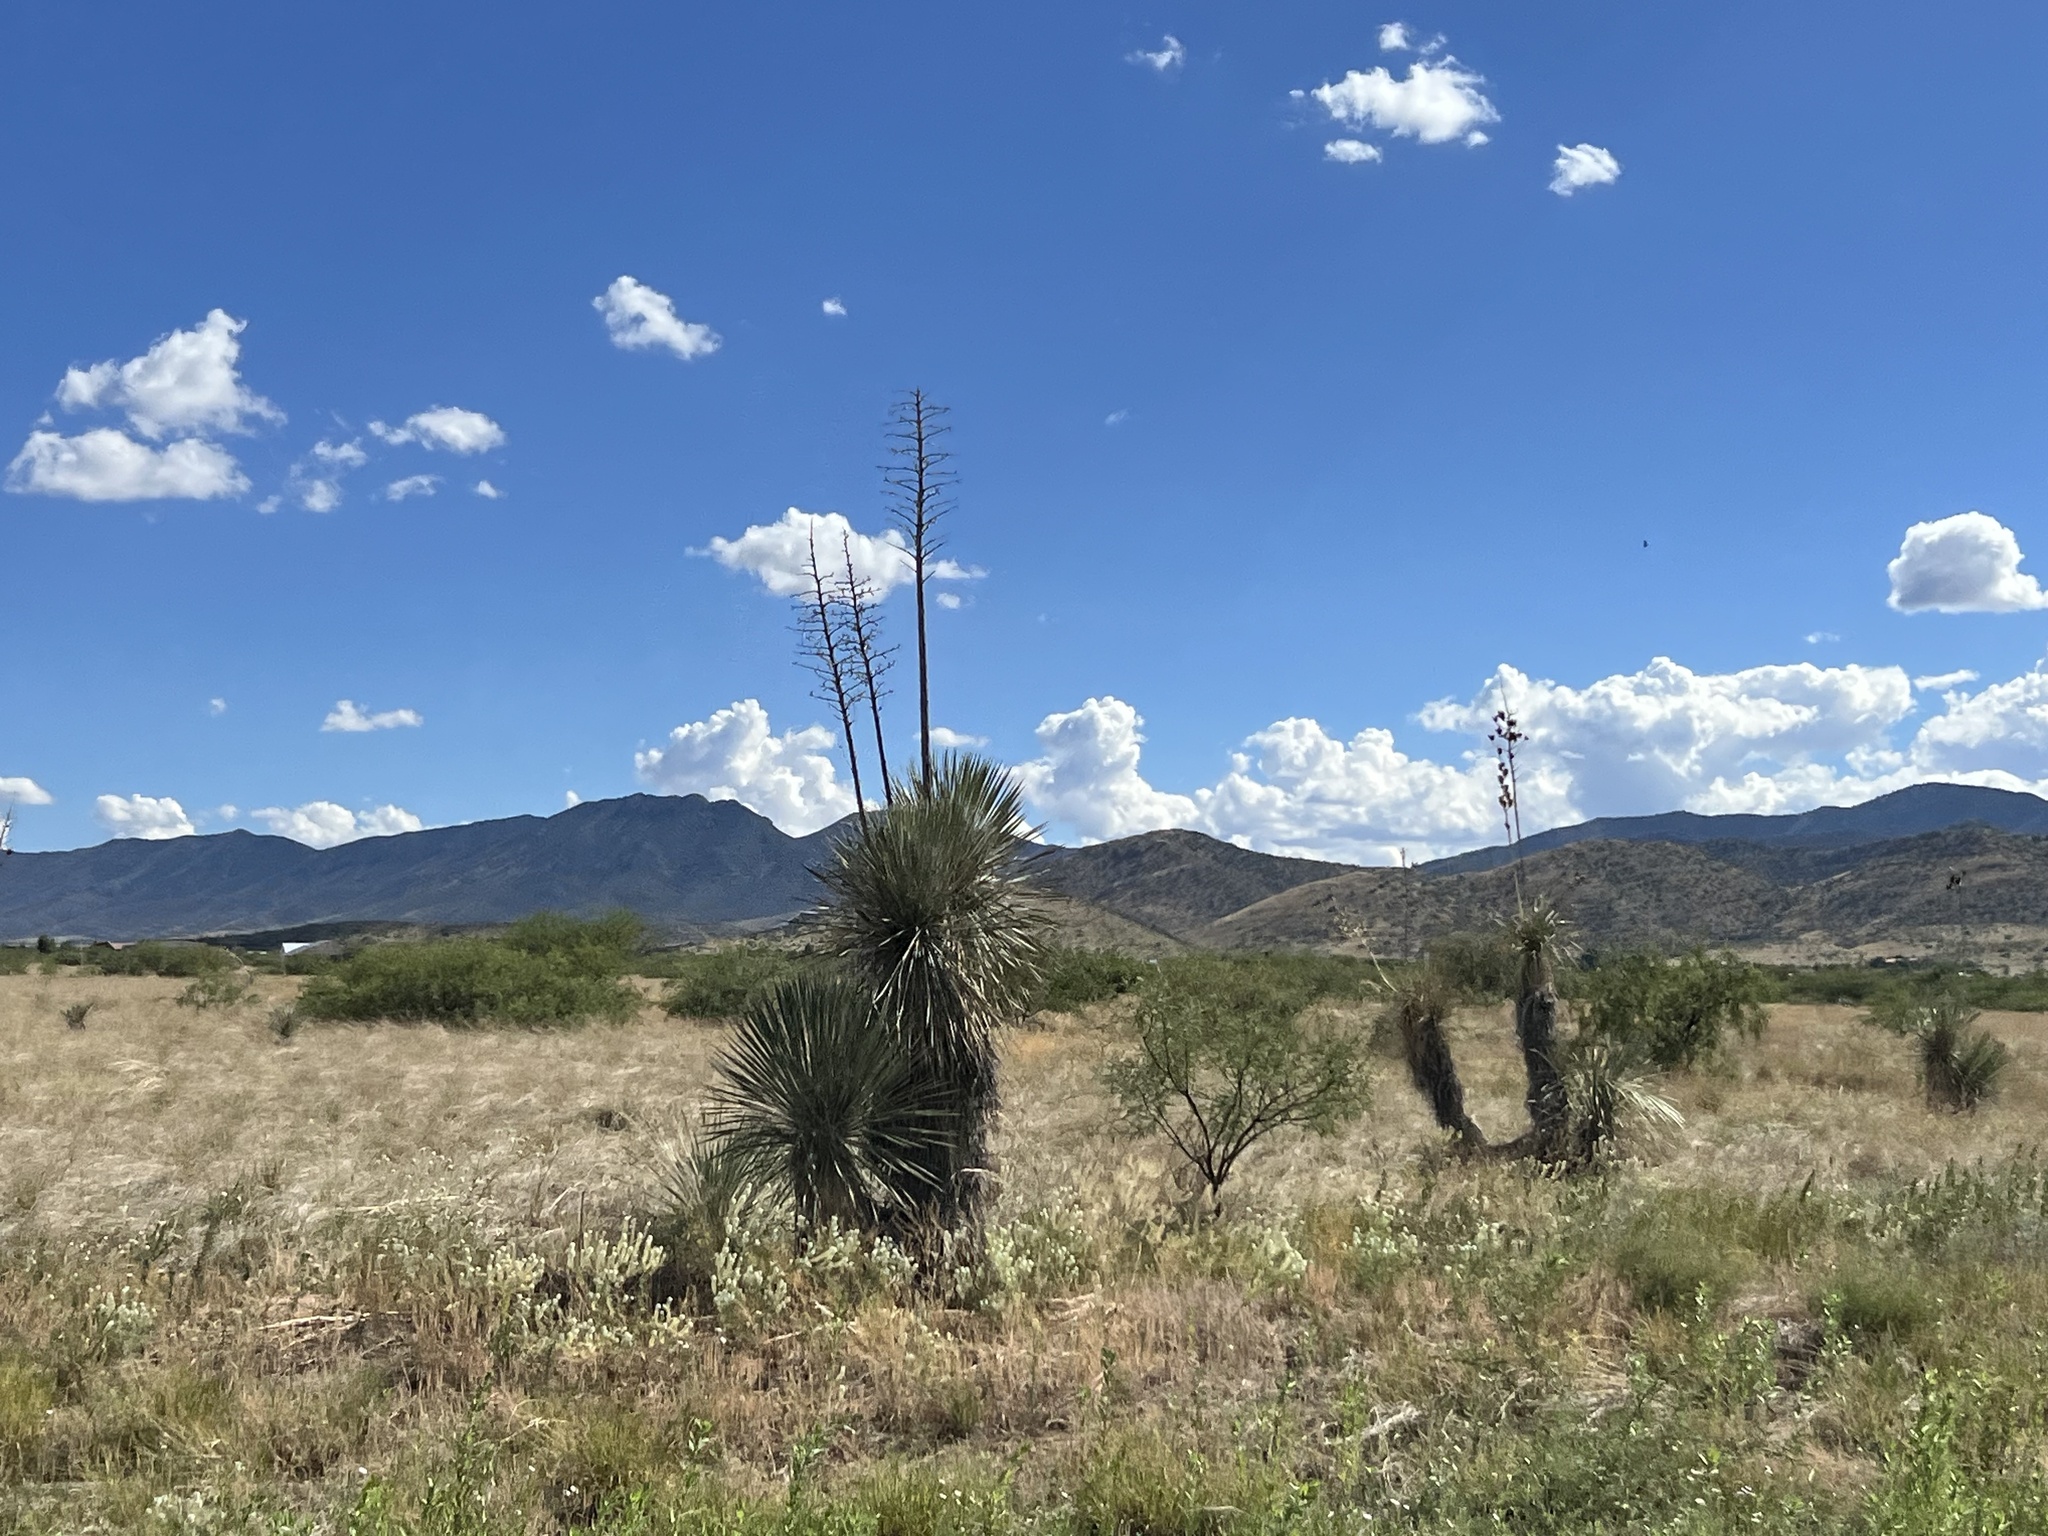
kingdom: Plantae
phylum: Tracheophyta
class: Liliopsida
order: Asparagales
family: Asparagaceae
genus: Yucca
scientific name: Yucca elata
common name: Palmella
